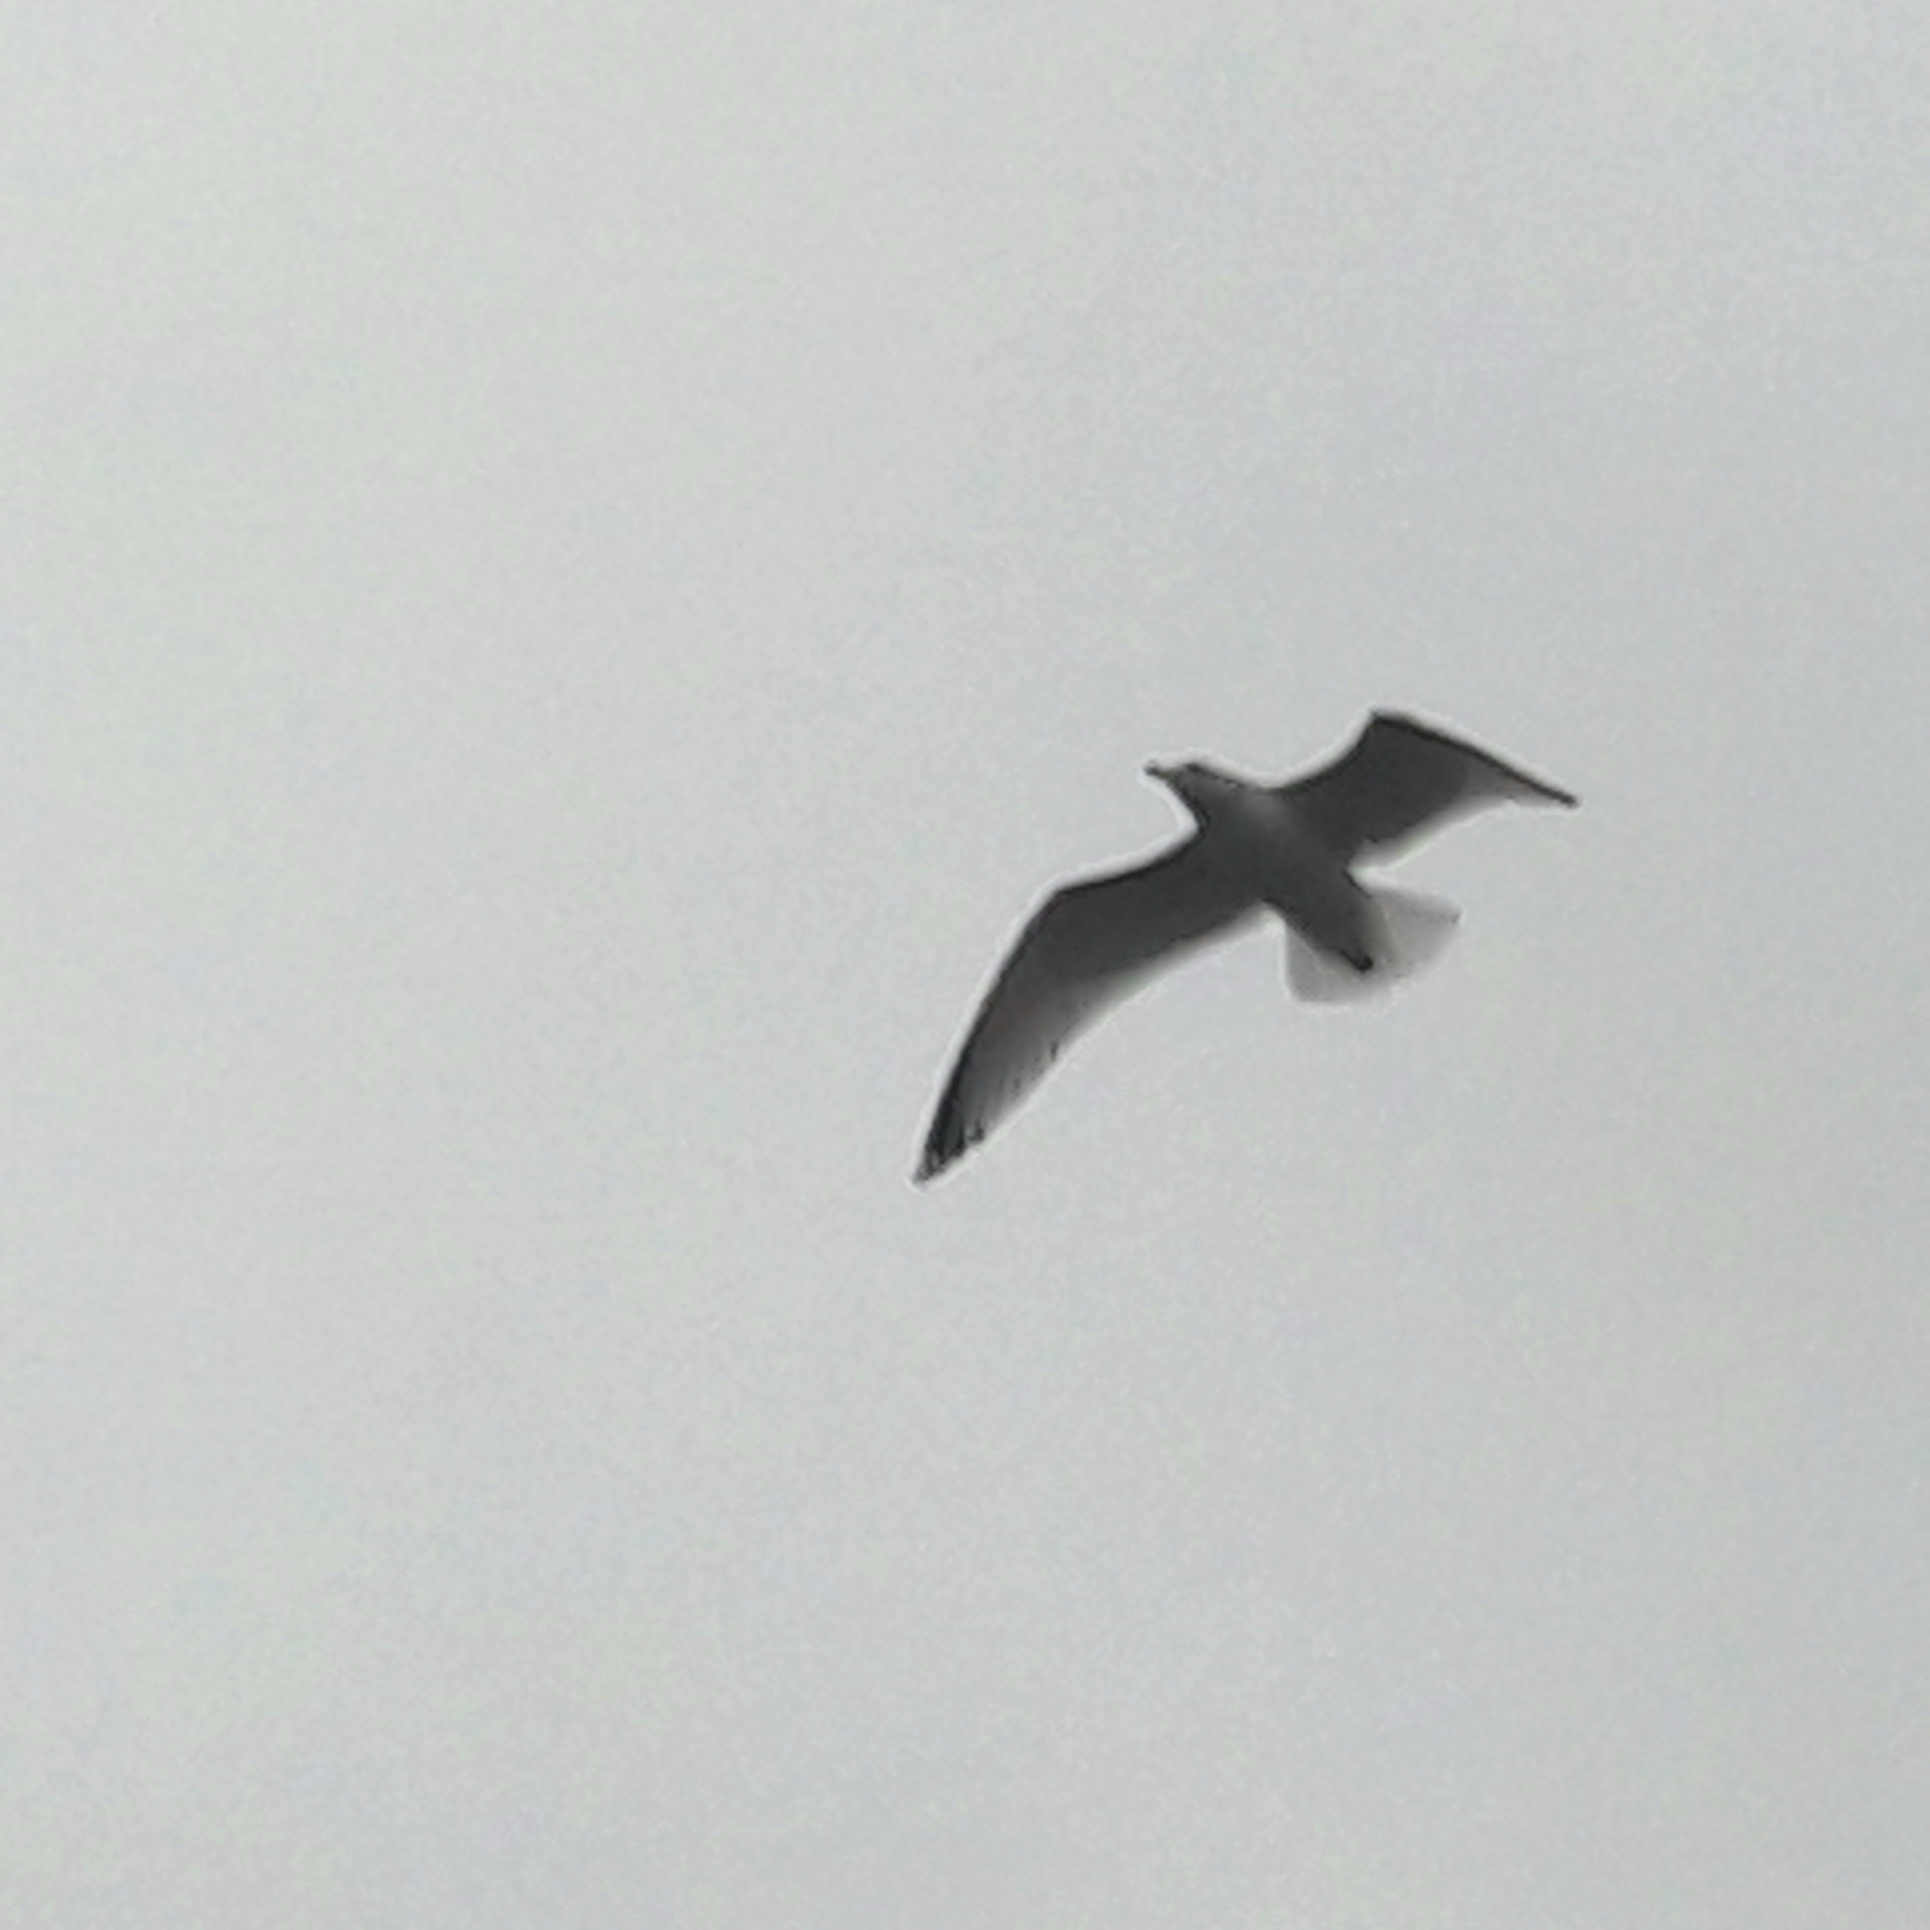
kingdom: Animalia
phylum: Chordata
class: Aves
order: Charadriiformes
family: Laridae
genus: Larus
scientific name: Larus argentatus
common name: Herring gull
